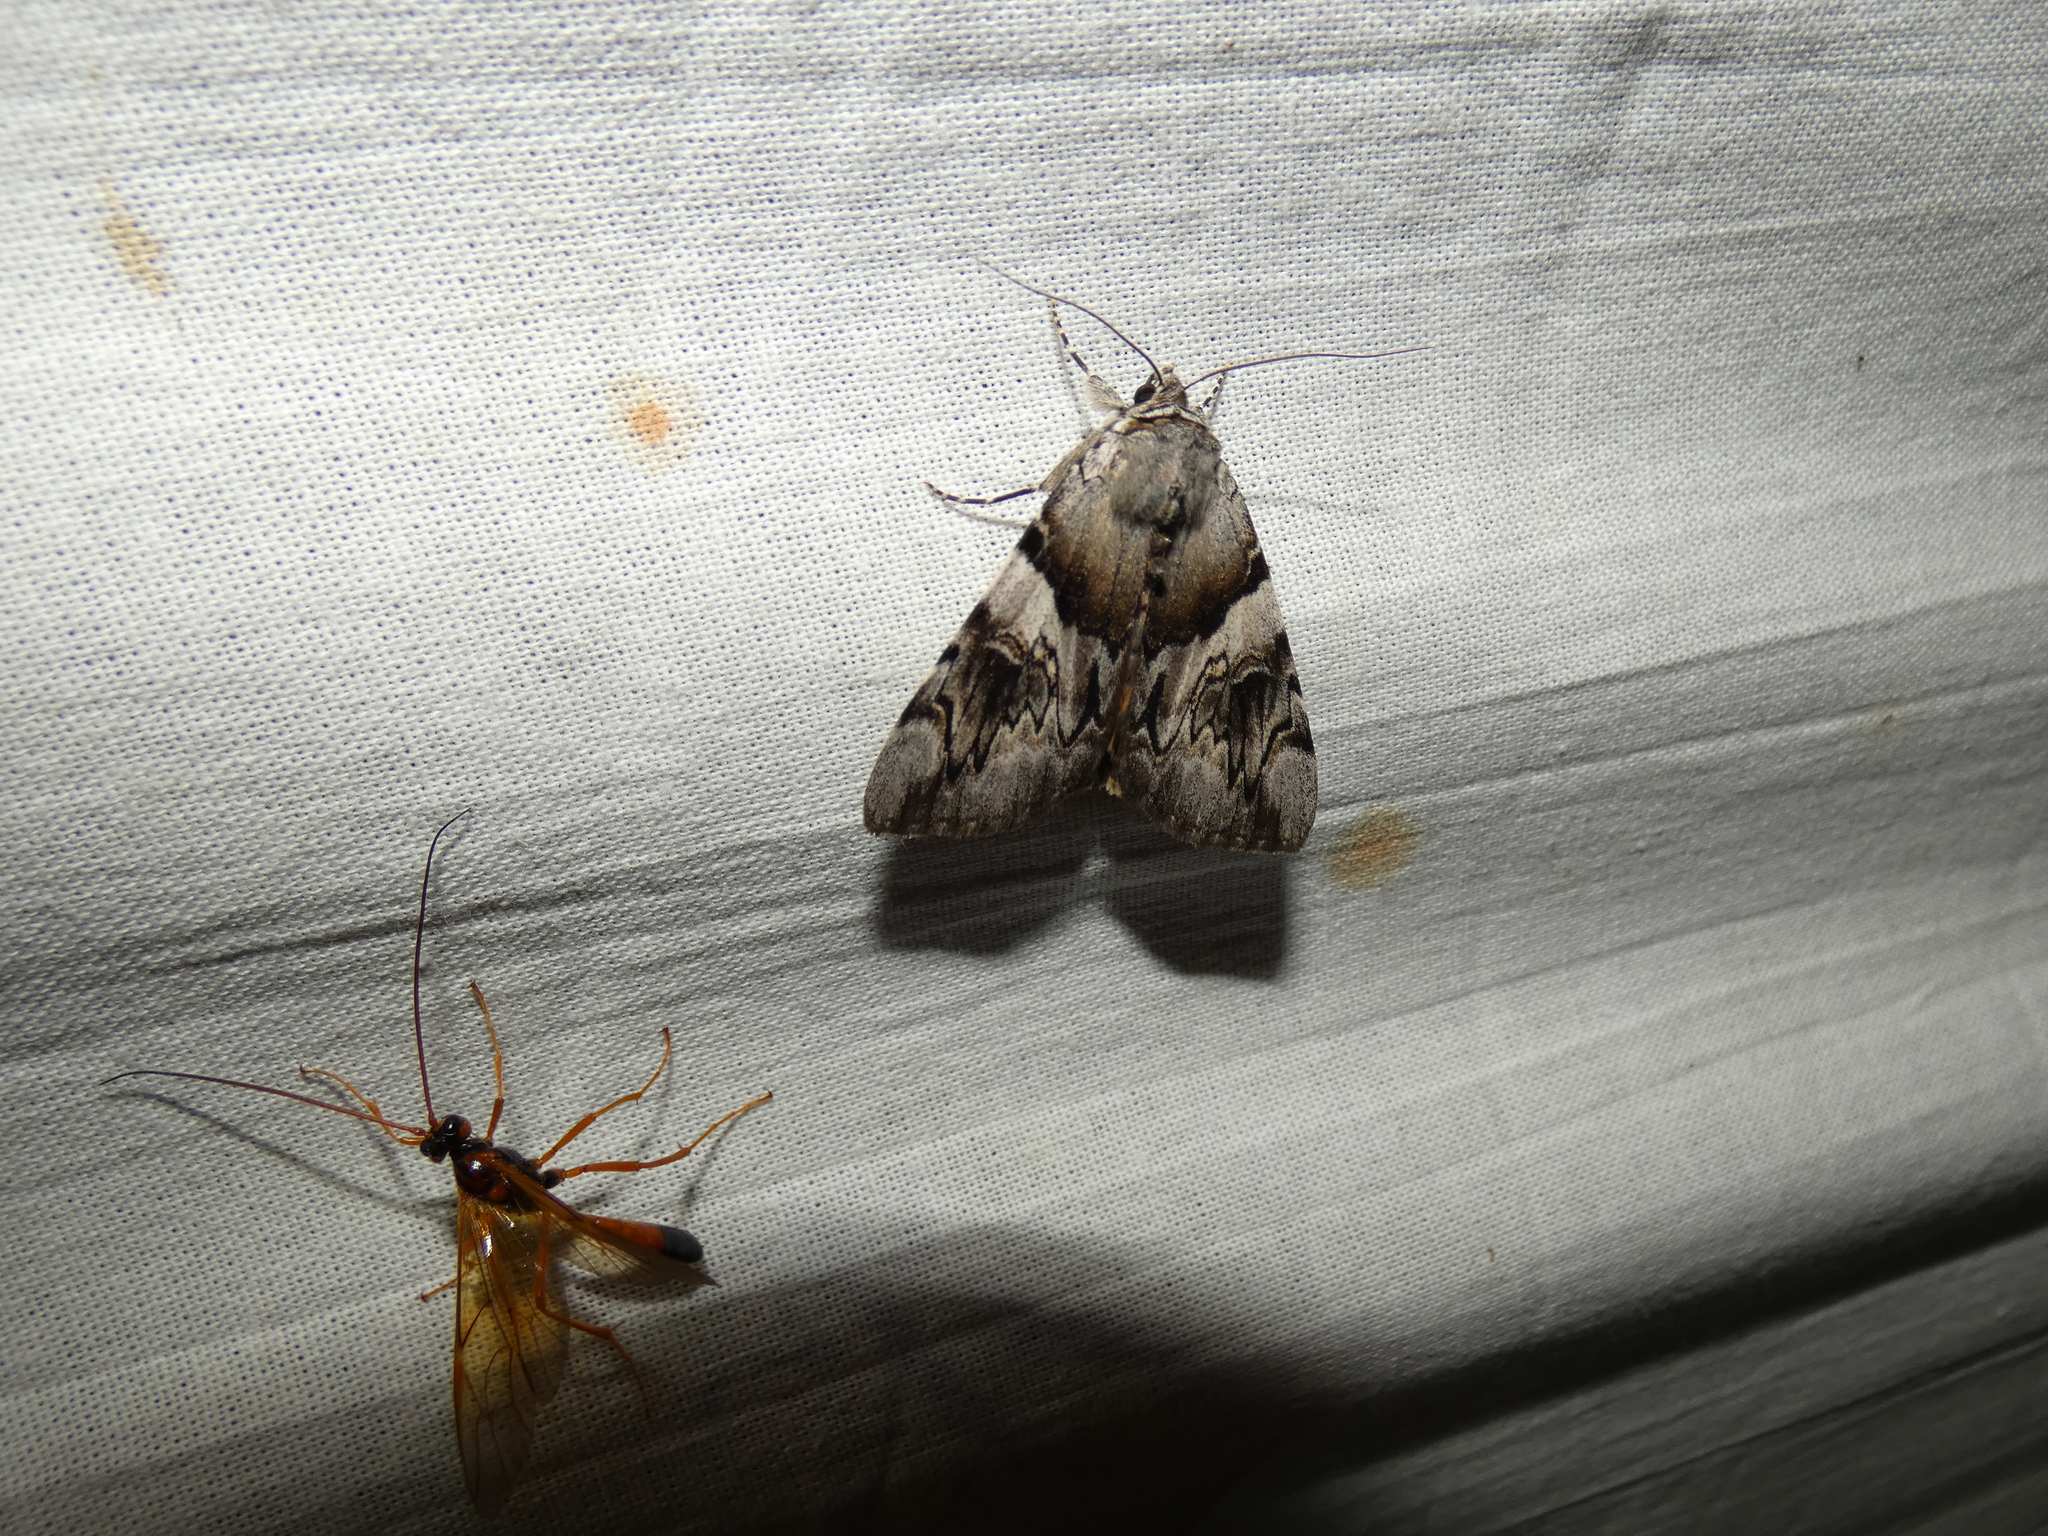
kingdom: Animalia
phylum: Arthropoda
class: Insecta
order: Lepidoptera
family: Erebidae
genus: Catocala
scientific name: Catocala fulminea
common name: Yellow bands underwing
